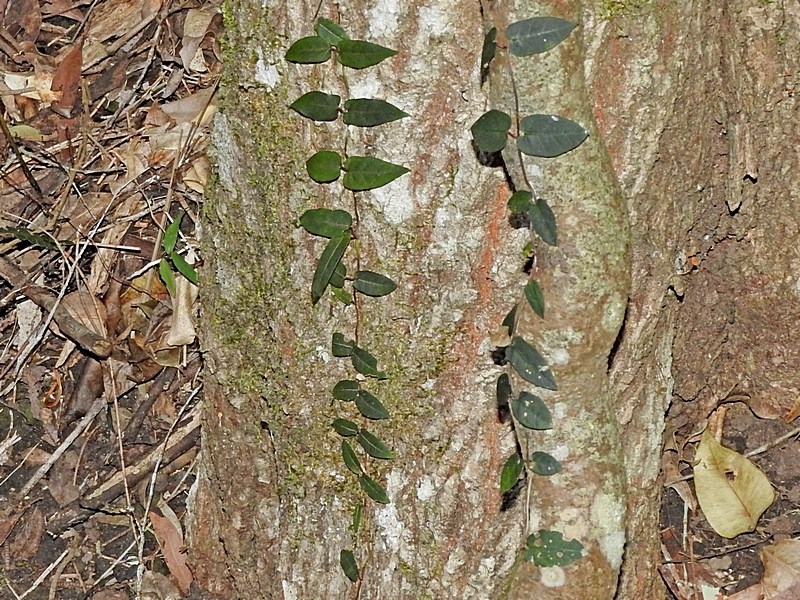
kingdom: Plantae
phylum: Tracheophyta
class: Magnoliopsida
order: Gentianales
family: Apocynaceae
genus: Parsonsia
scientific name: Parsonsia straminea
